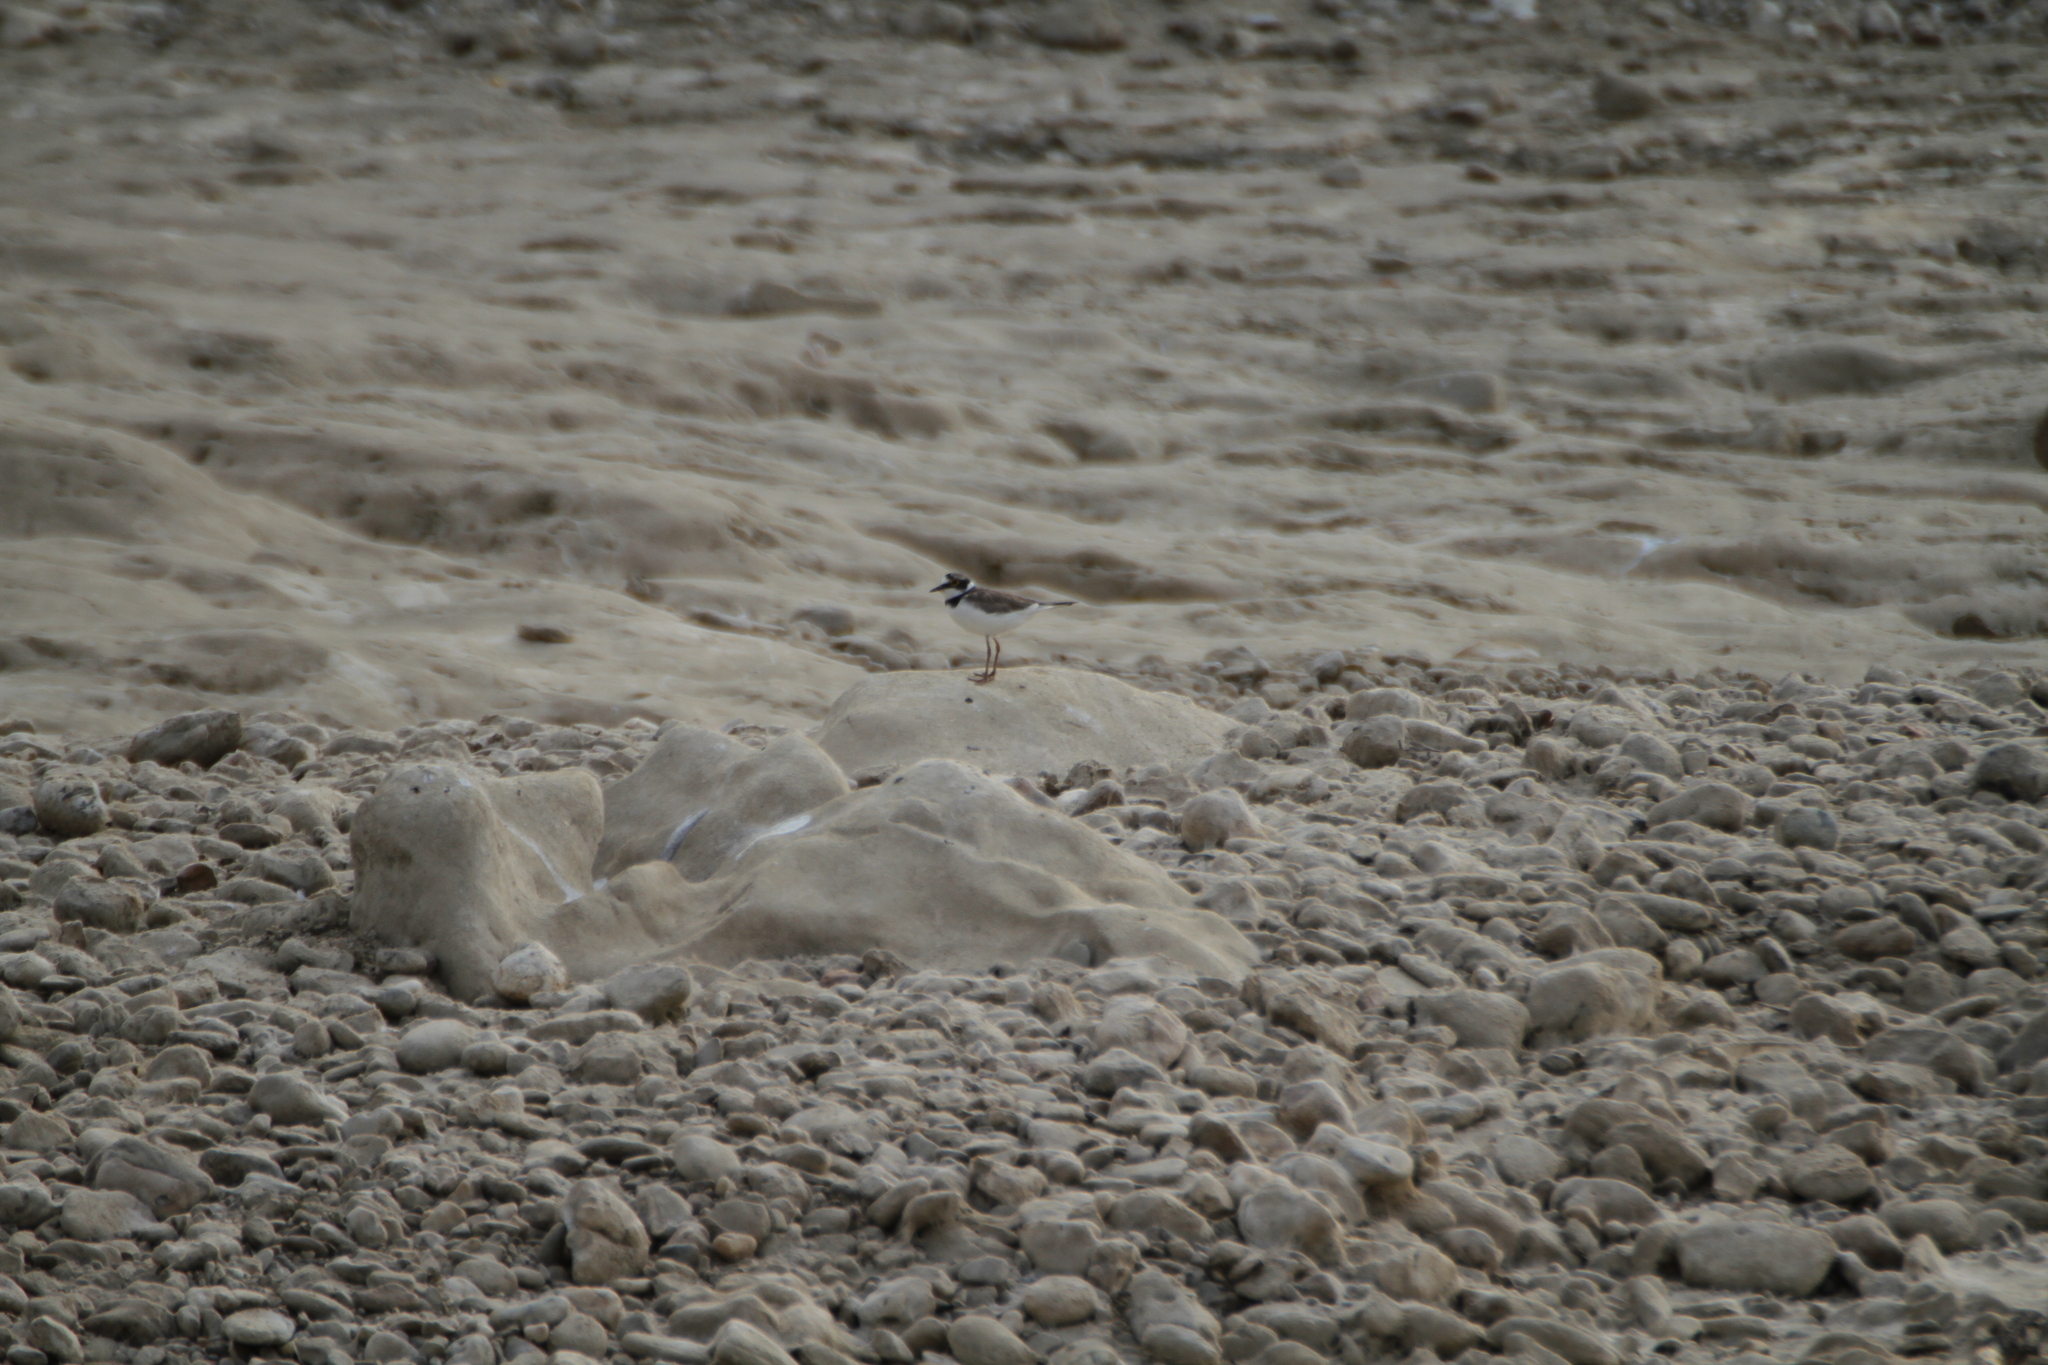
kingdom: Animalia
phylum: Chordata
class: Aves
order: Charadriiformes
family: Charadriidae
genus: Charadrius
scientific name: Charadrius dubius
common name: Little ringed plover
